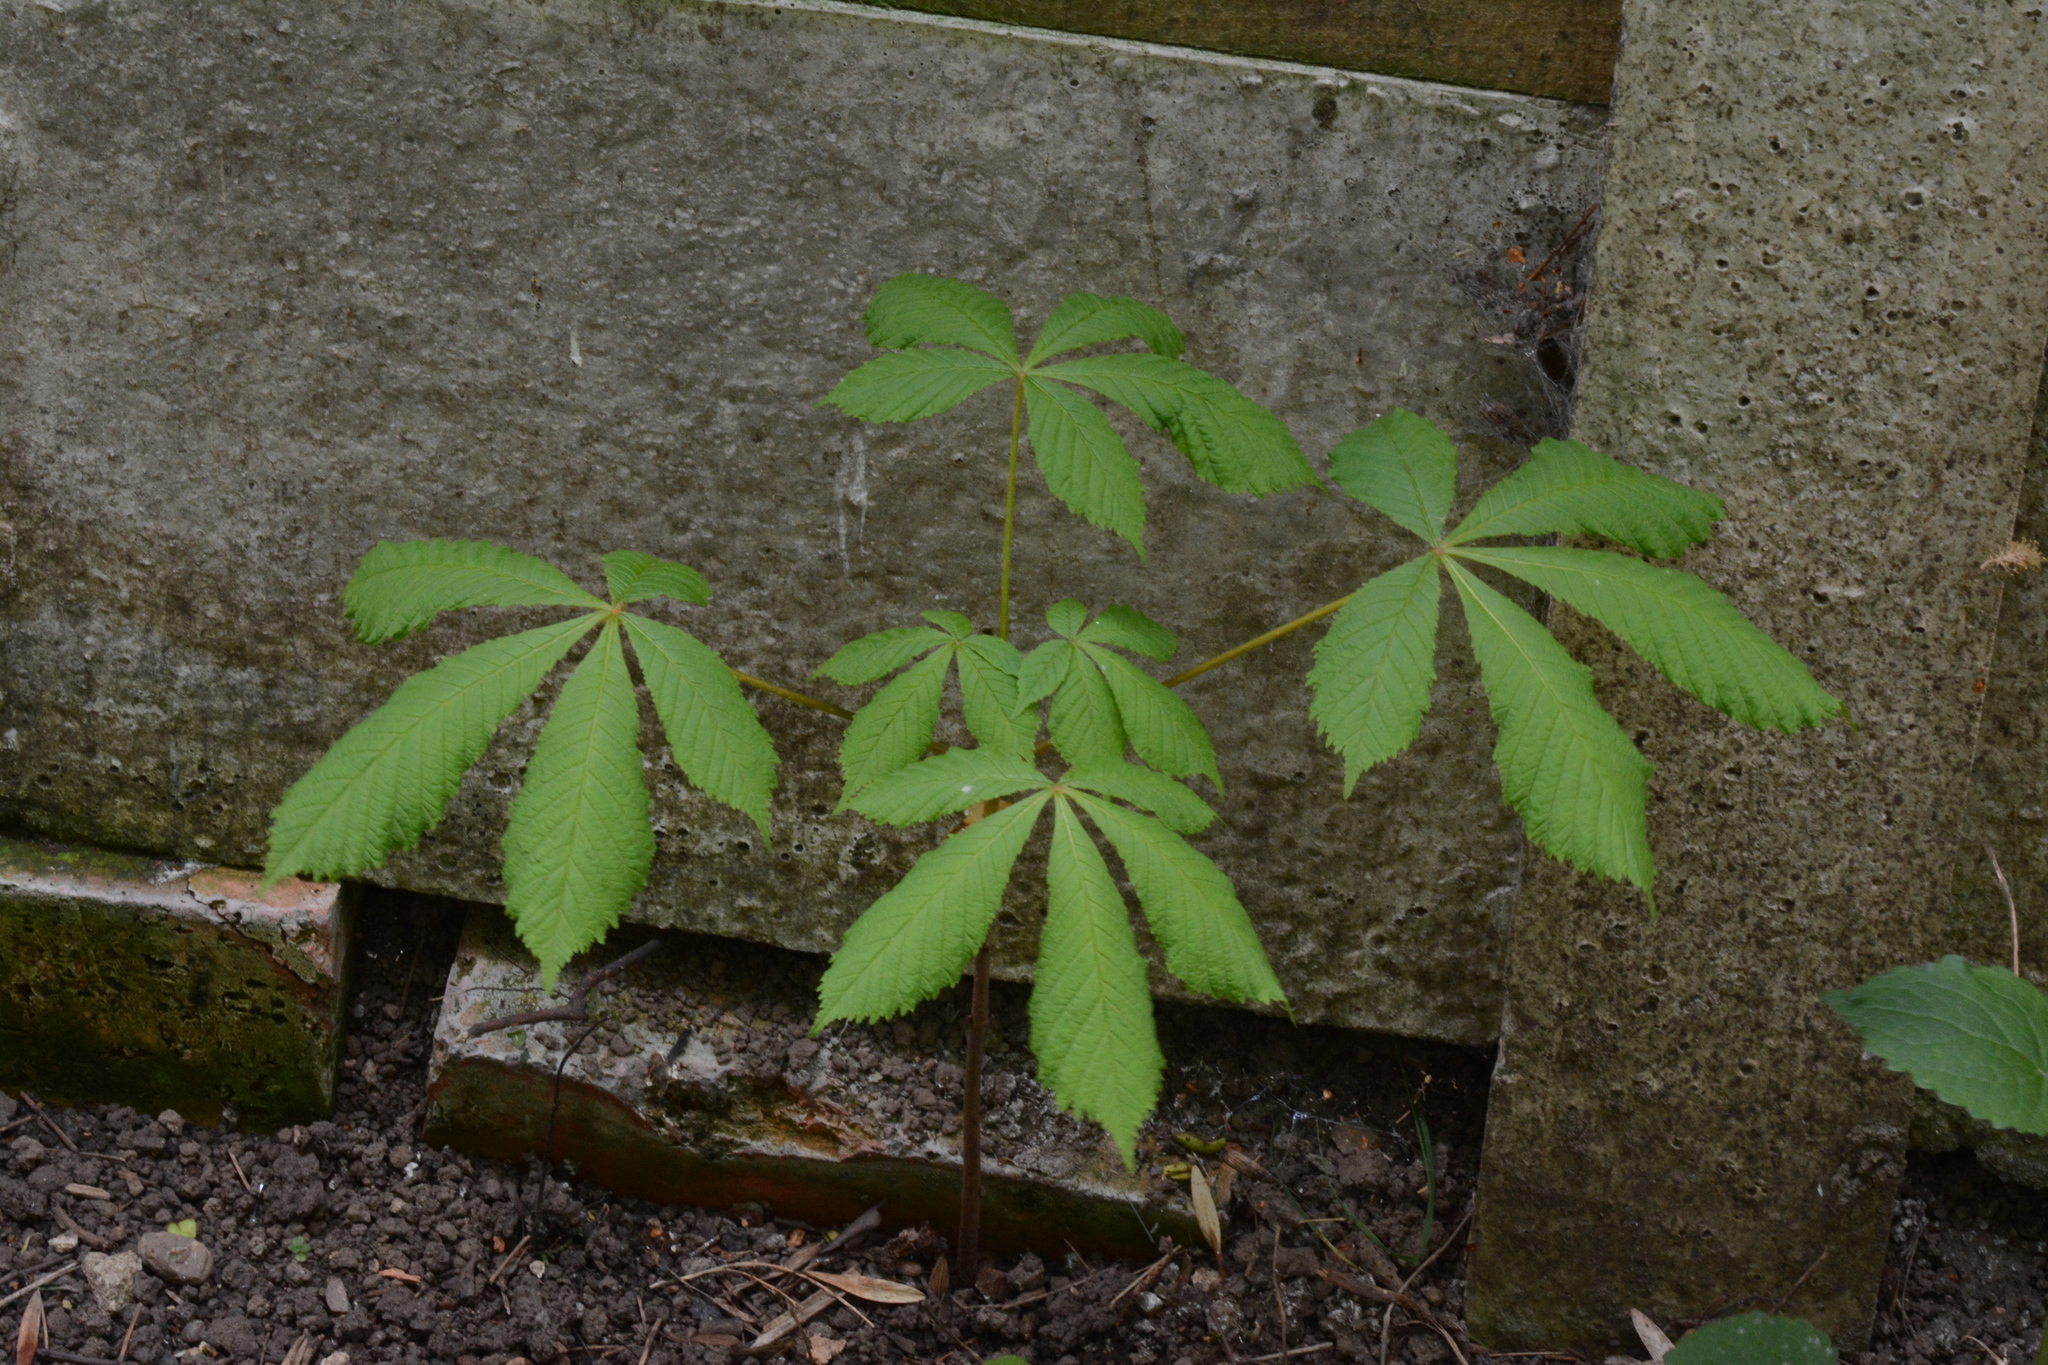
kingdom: Plantae
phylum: Tracheophyta
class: Magnoliopsida
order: Sapindales
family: Sapindaceae
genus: Aesculus
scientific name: Aesculus hippocastanum
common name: Horse-chestnut
